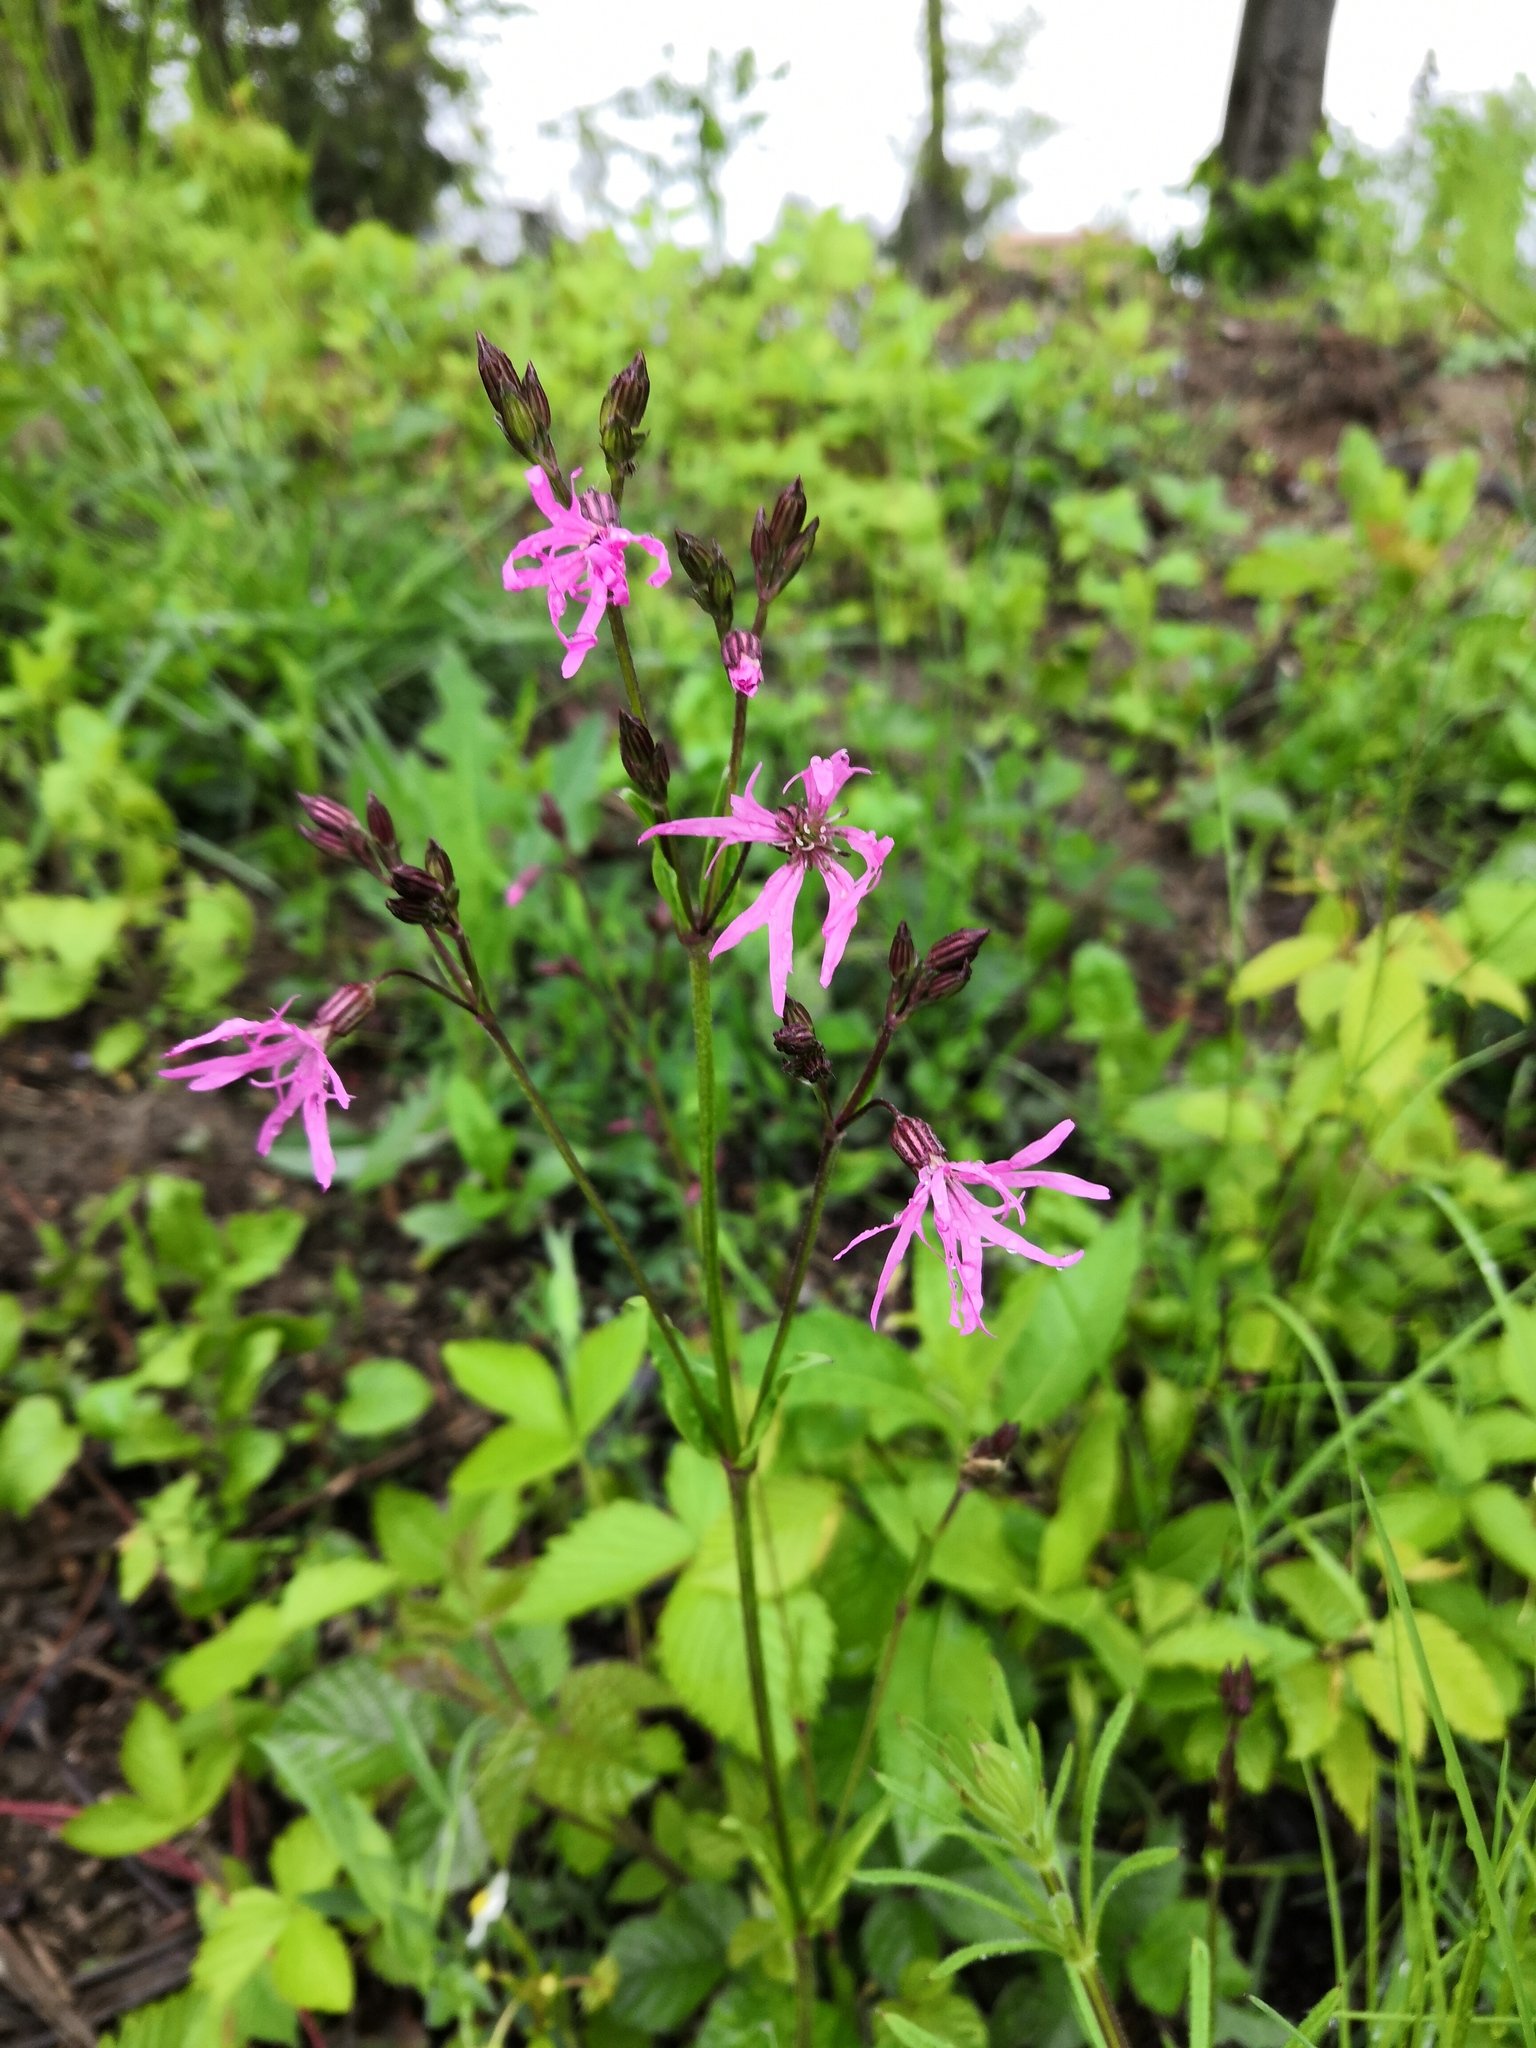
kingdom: Plantae
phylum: Tracheophyta
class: Magnoliopsida
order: Caryophyllales
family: Caryophyllaceae
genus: Silene
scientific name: Silene flos-cuculi
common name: Ragged-robin
